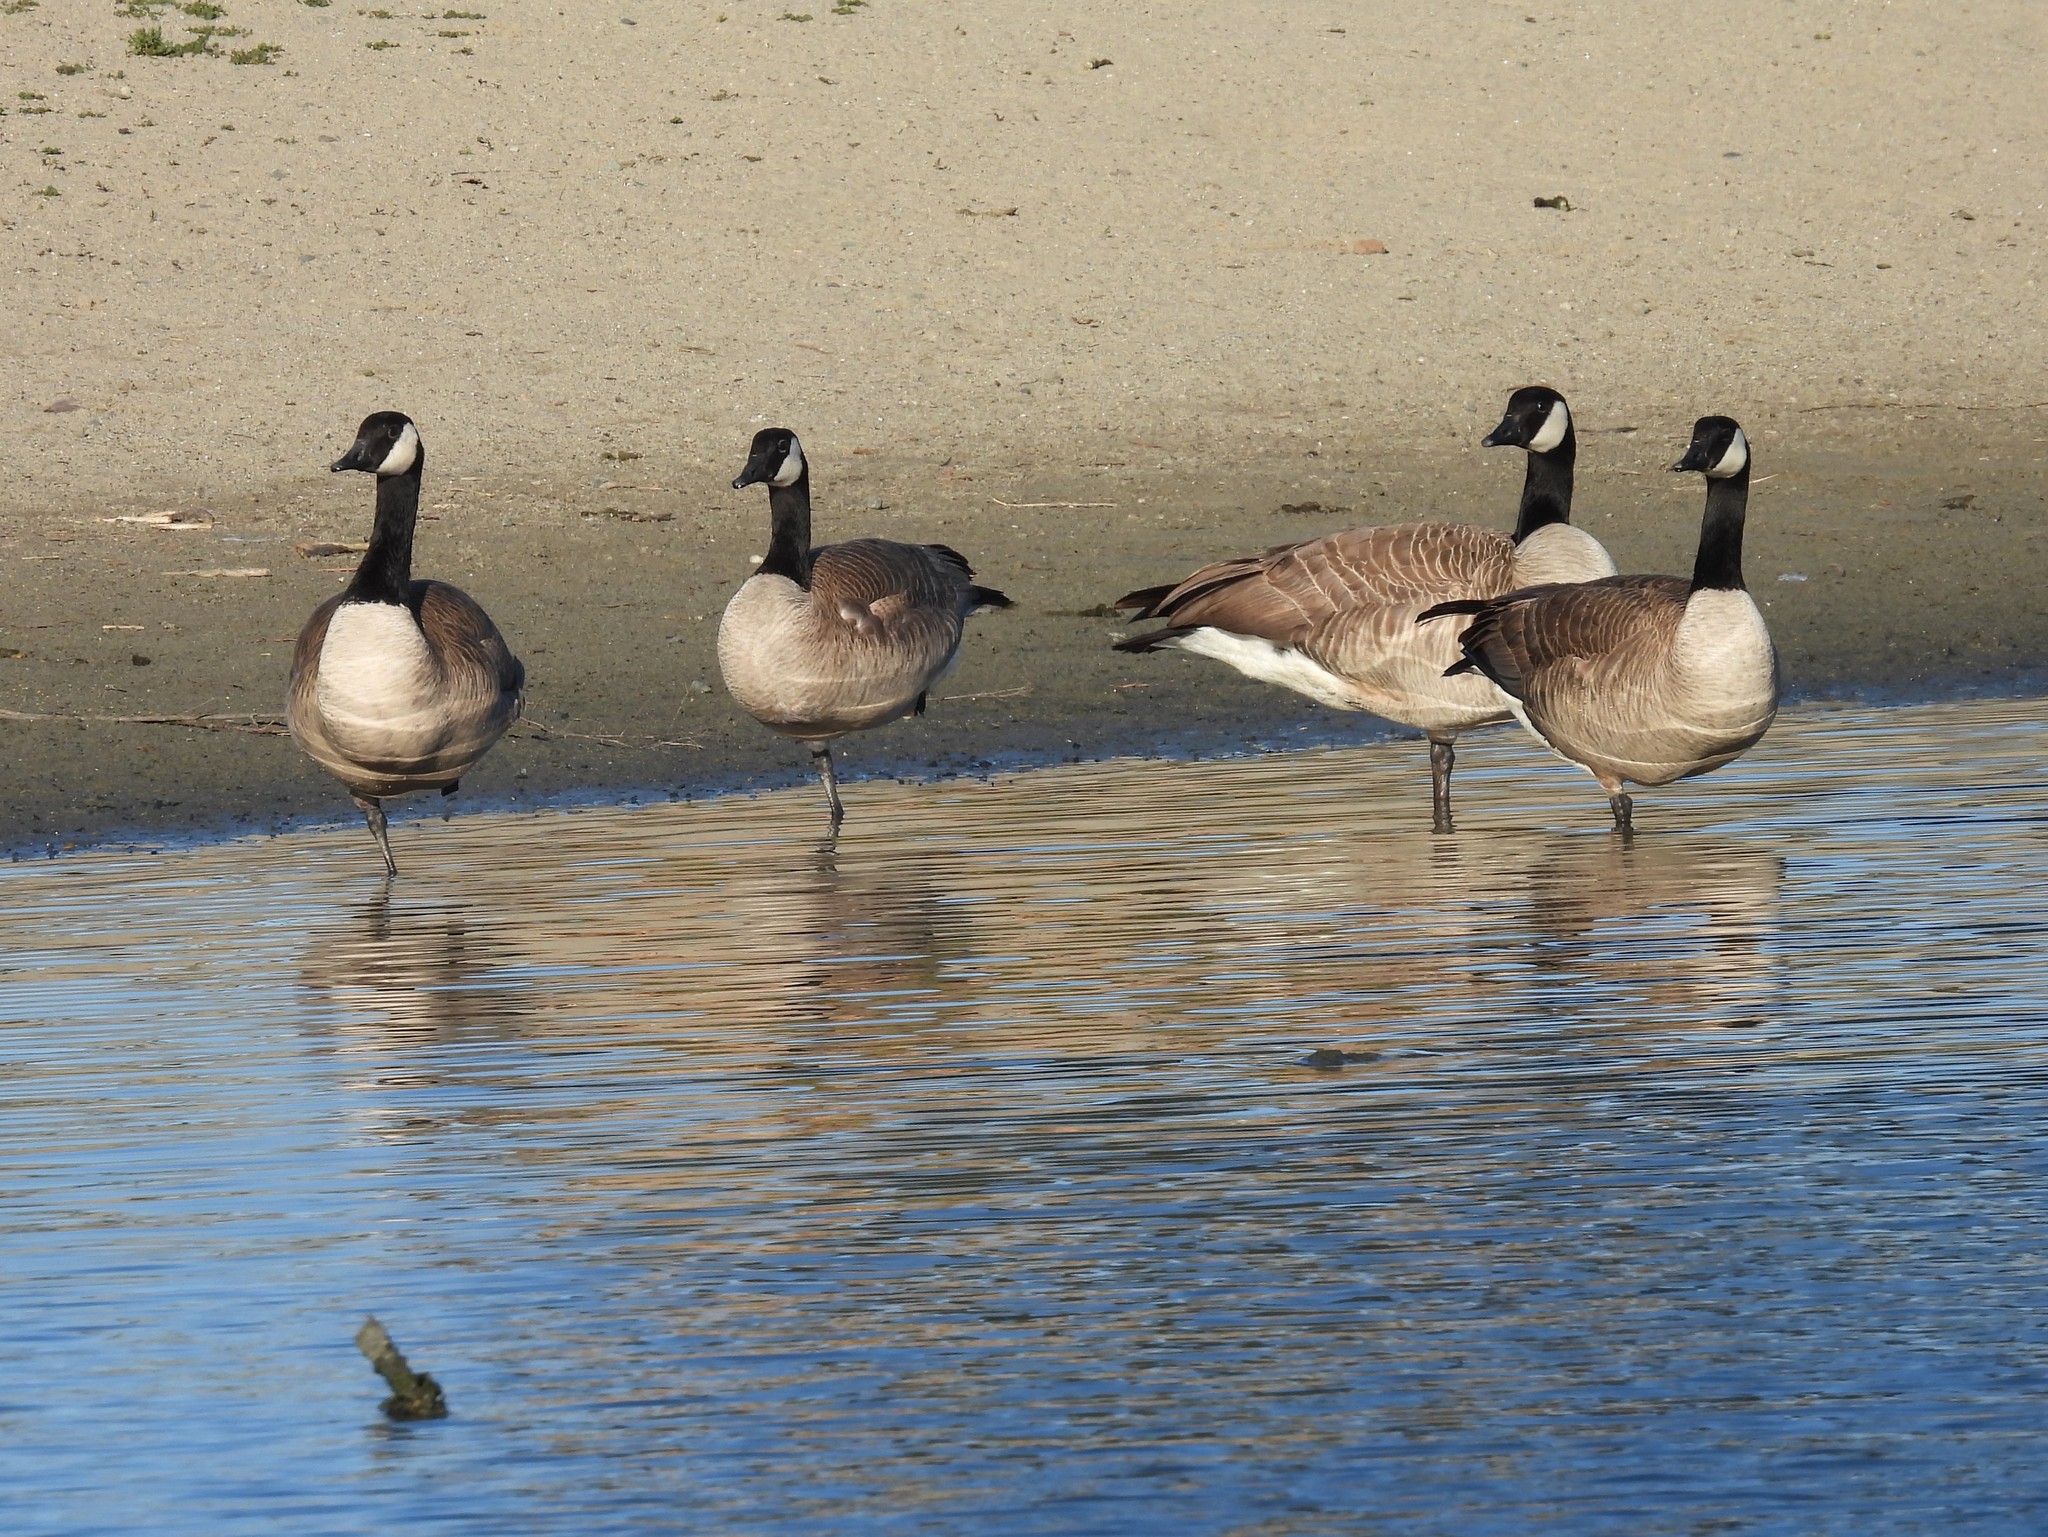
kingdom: Animalia
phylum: Chordata
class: Aves
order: Anseriformes
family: Anatidae
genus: Branta
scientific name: Branta canadensis
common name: Canada goose
